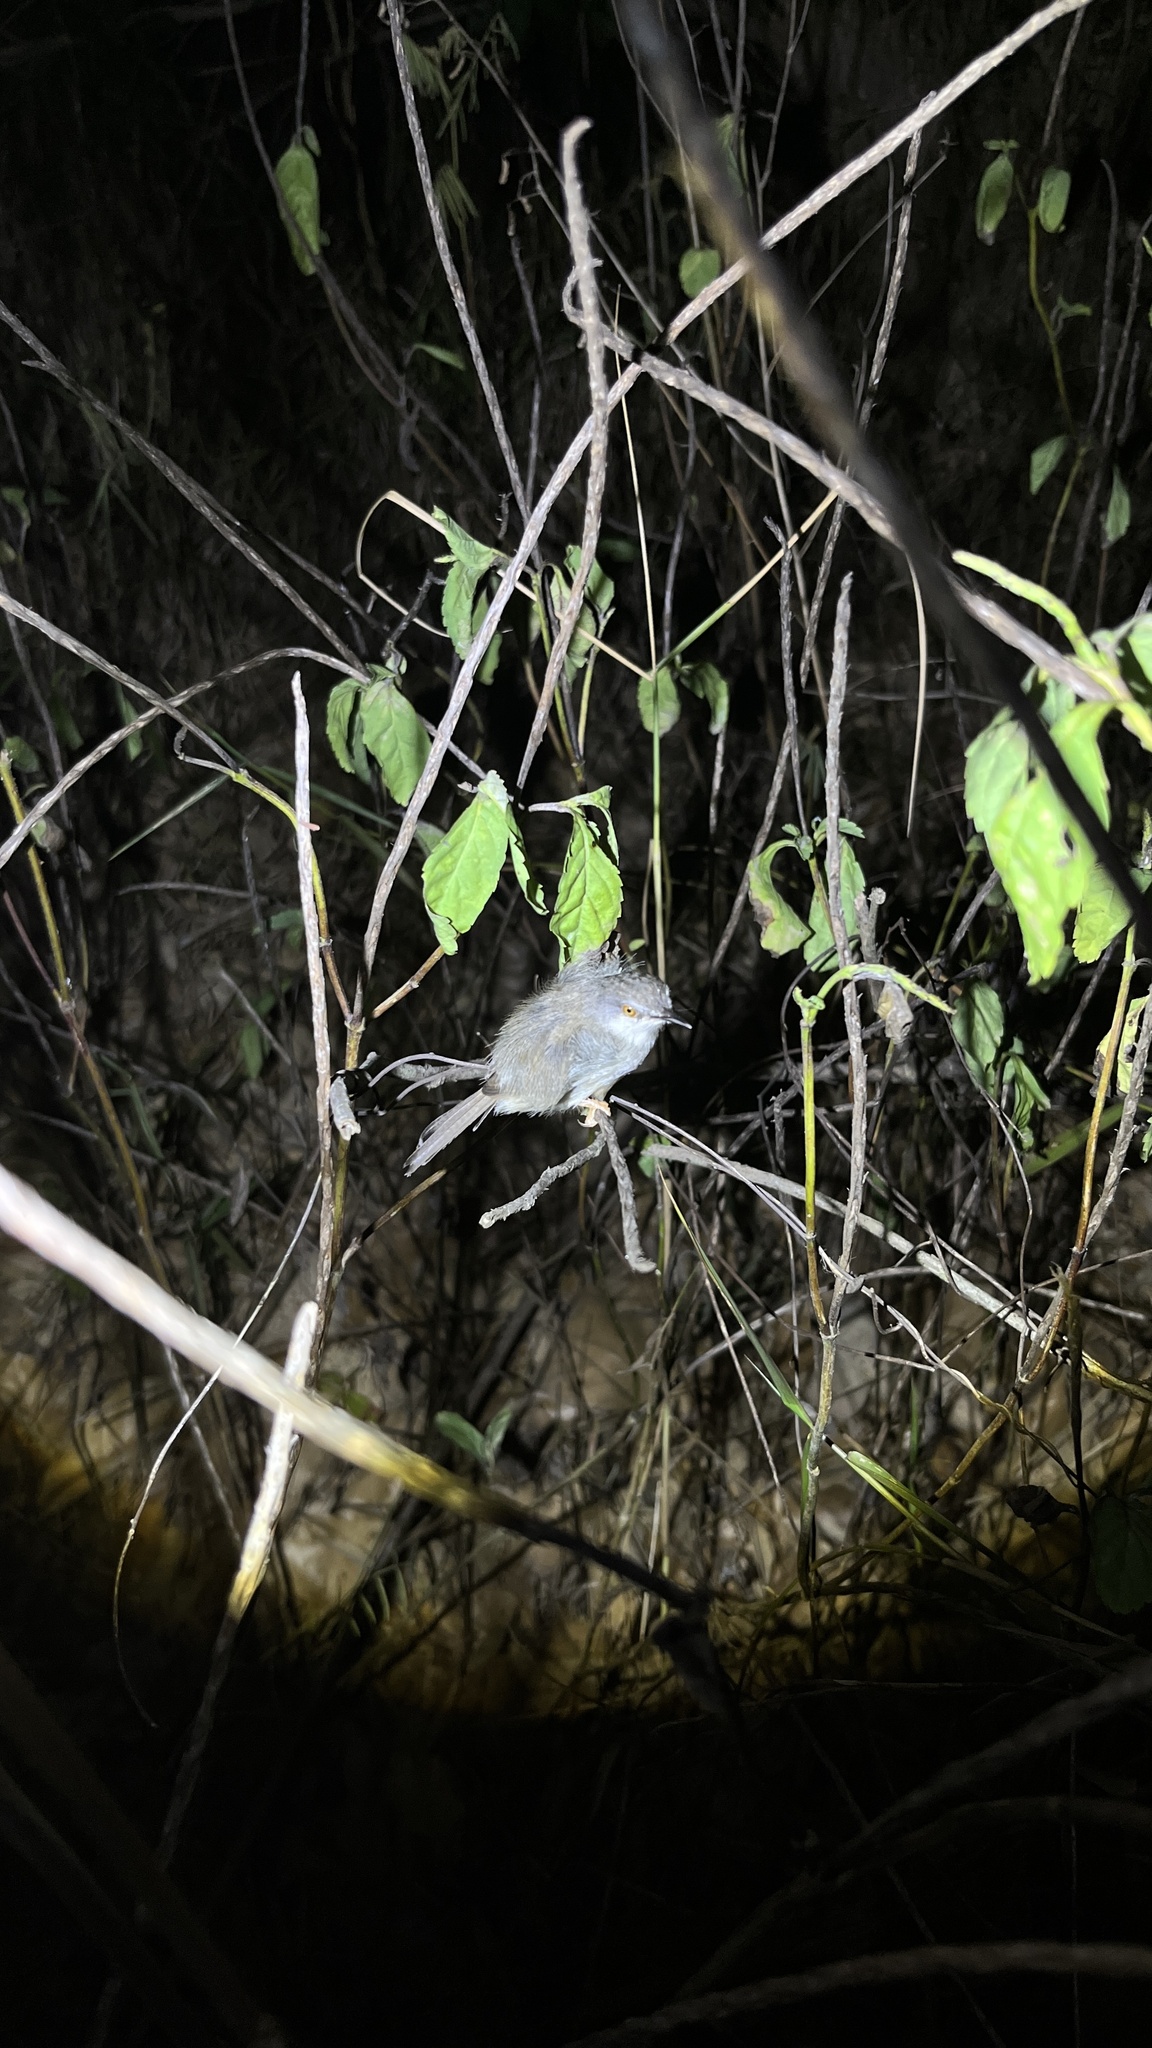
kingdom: Animalia
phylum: Chordata
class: Aves
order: Passeriformes
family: Cisticolidae
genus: Prinia
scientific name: Prinia hodgsonii
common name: Grey-breasted prinia
